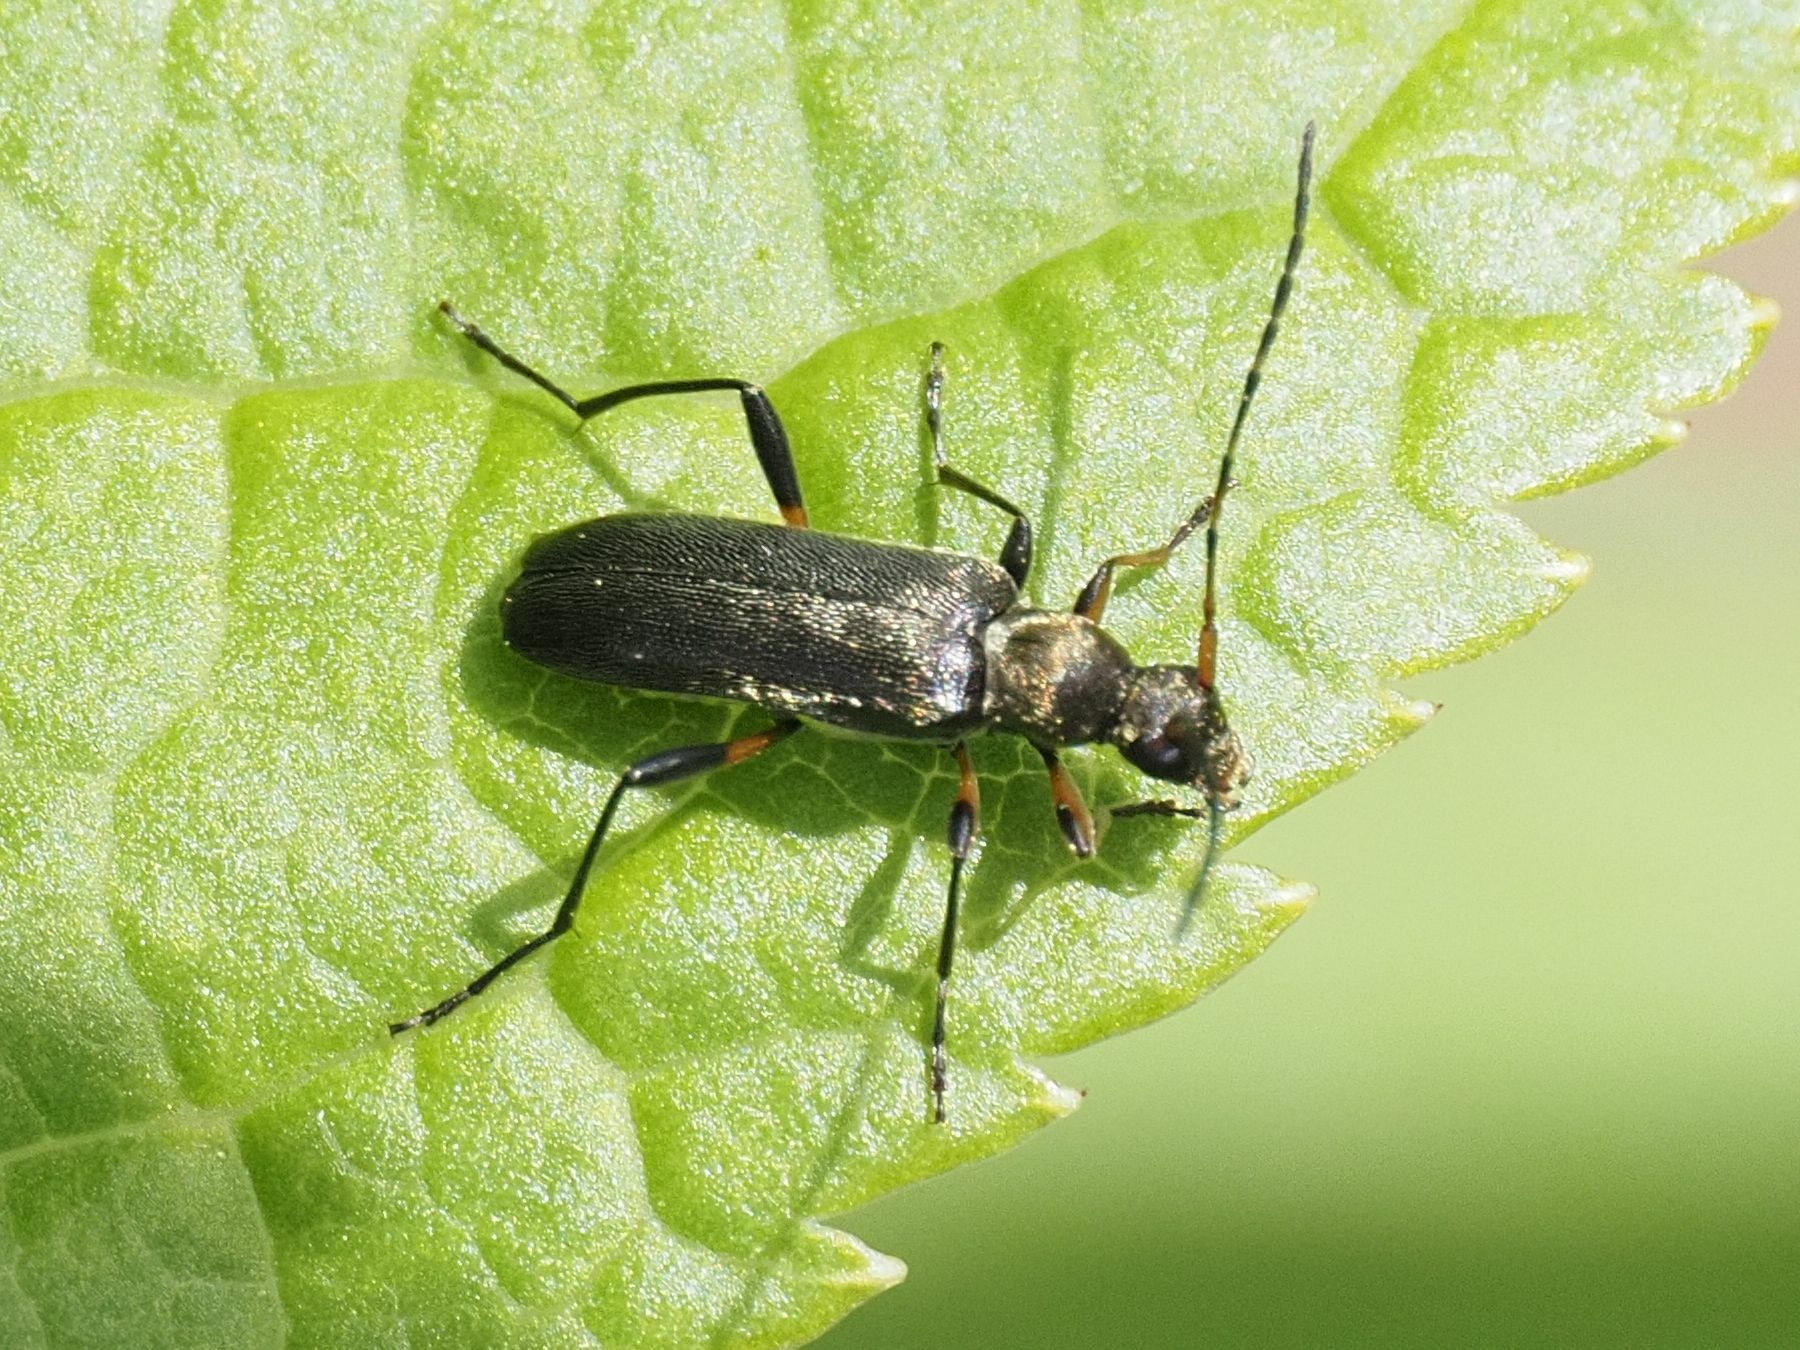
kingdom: Animalia
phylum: Arthropoda
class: Insecta
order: Coleoptera
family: Cerambycidae
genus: Grammoptera
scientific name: Grammoptera ruficornis
